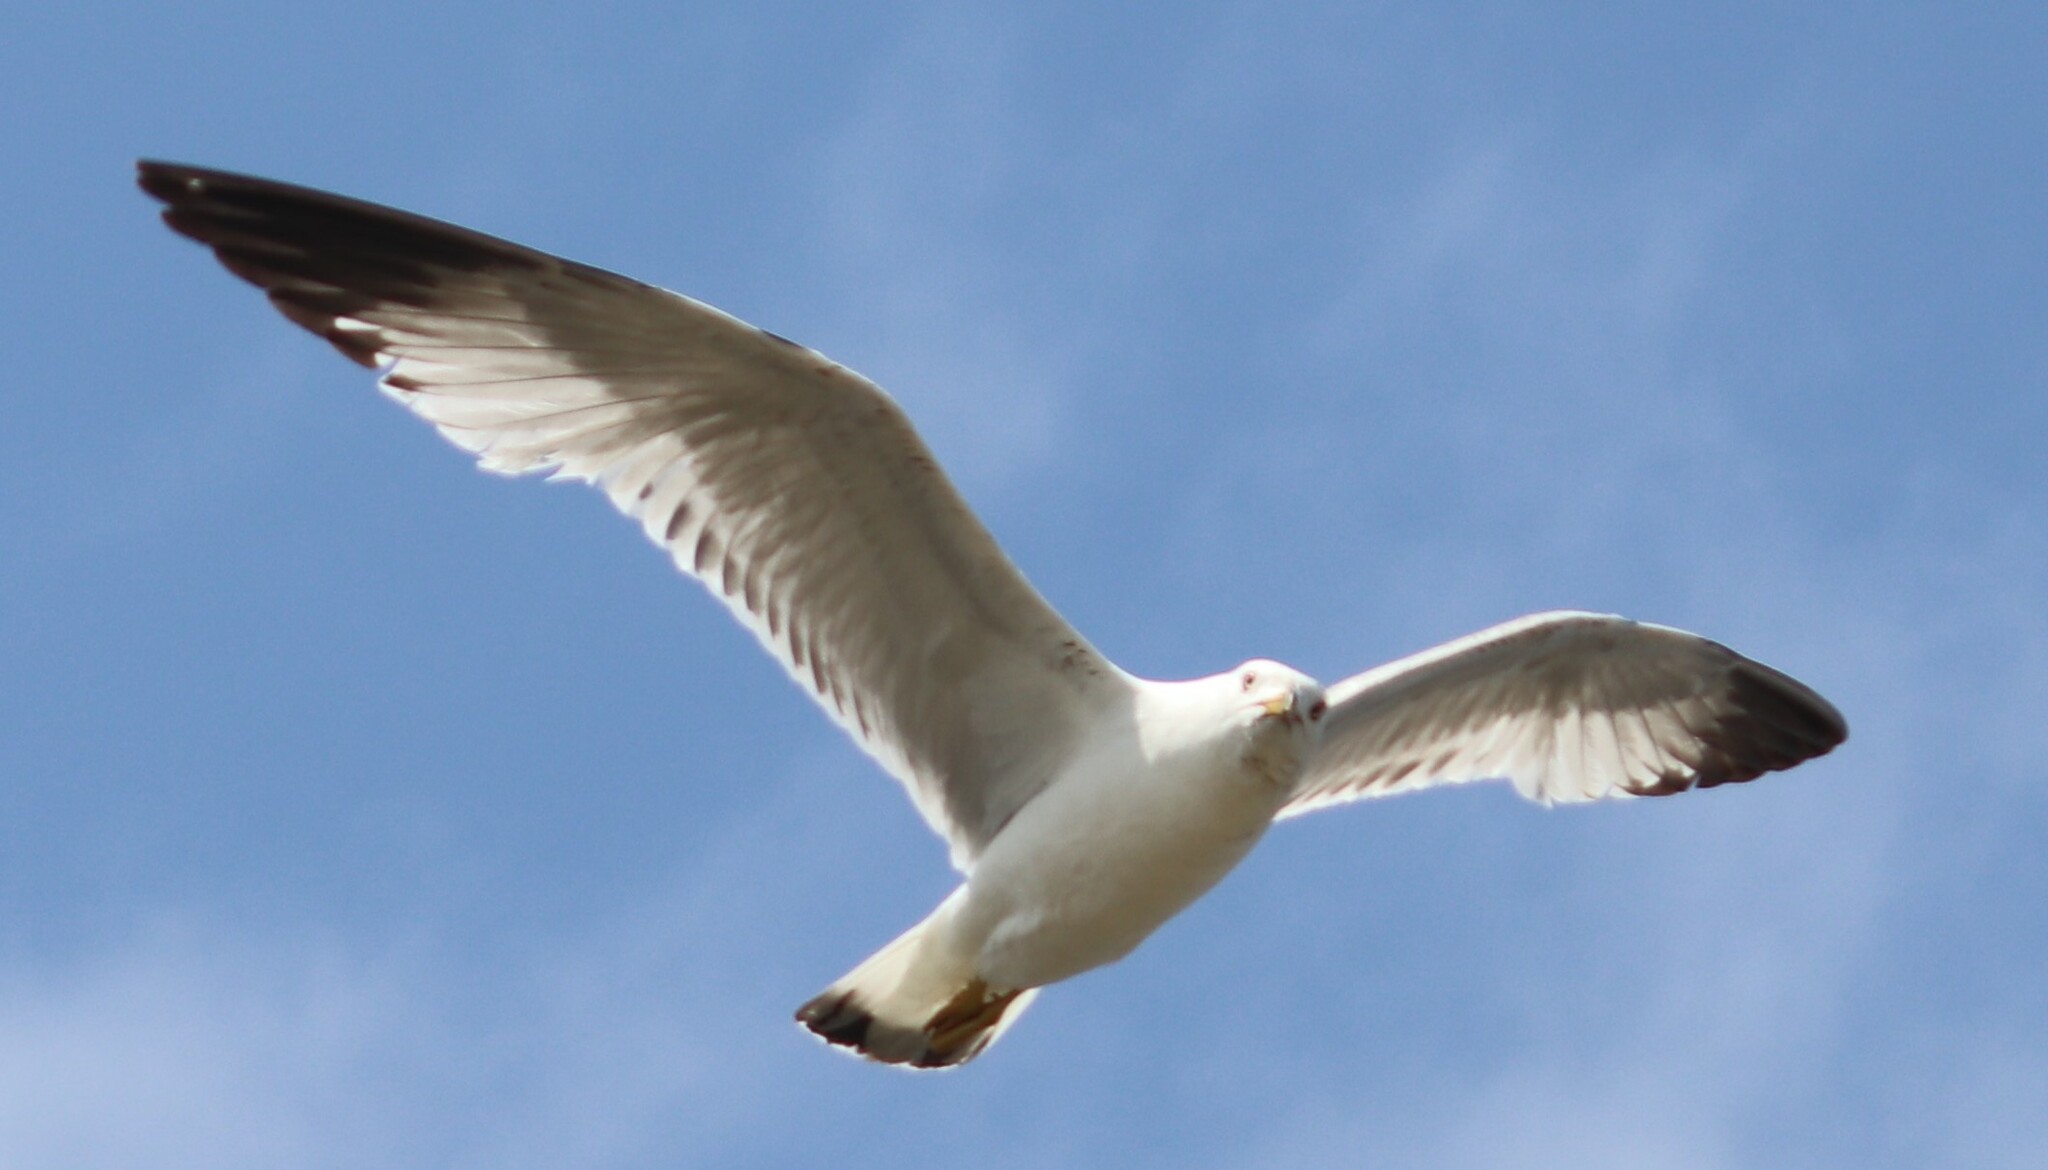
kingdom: Animalia
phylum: Chordata
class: Aves
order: Charadriiformes
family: Laridae
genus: Larus
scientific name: Larus delawarensis
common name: Ring-billed gull
